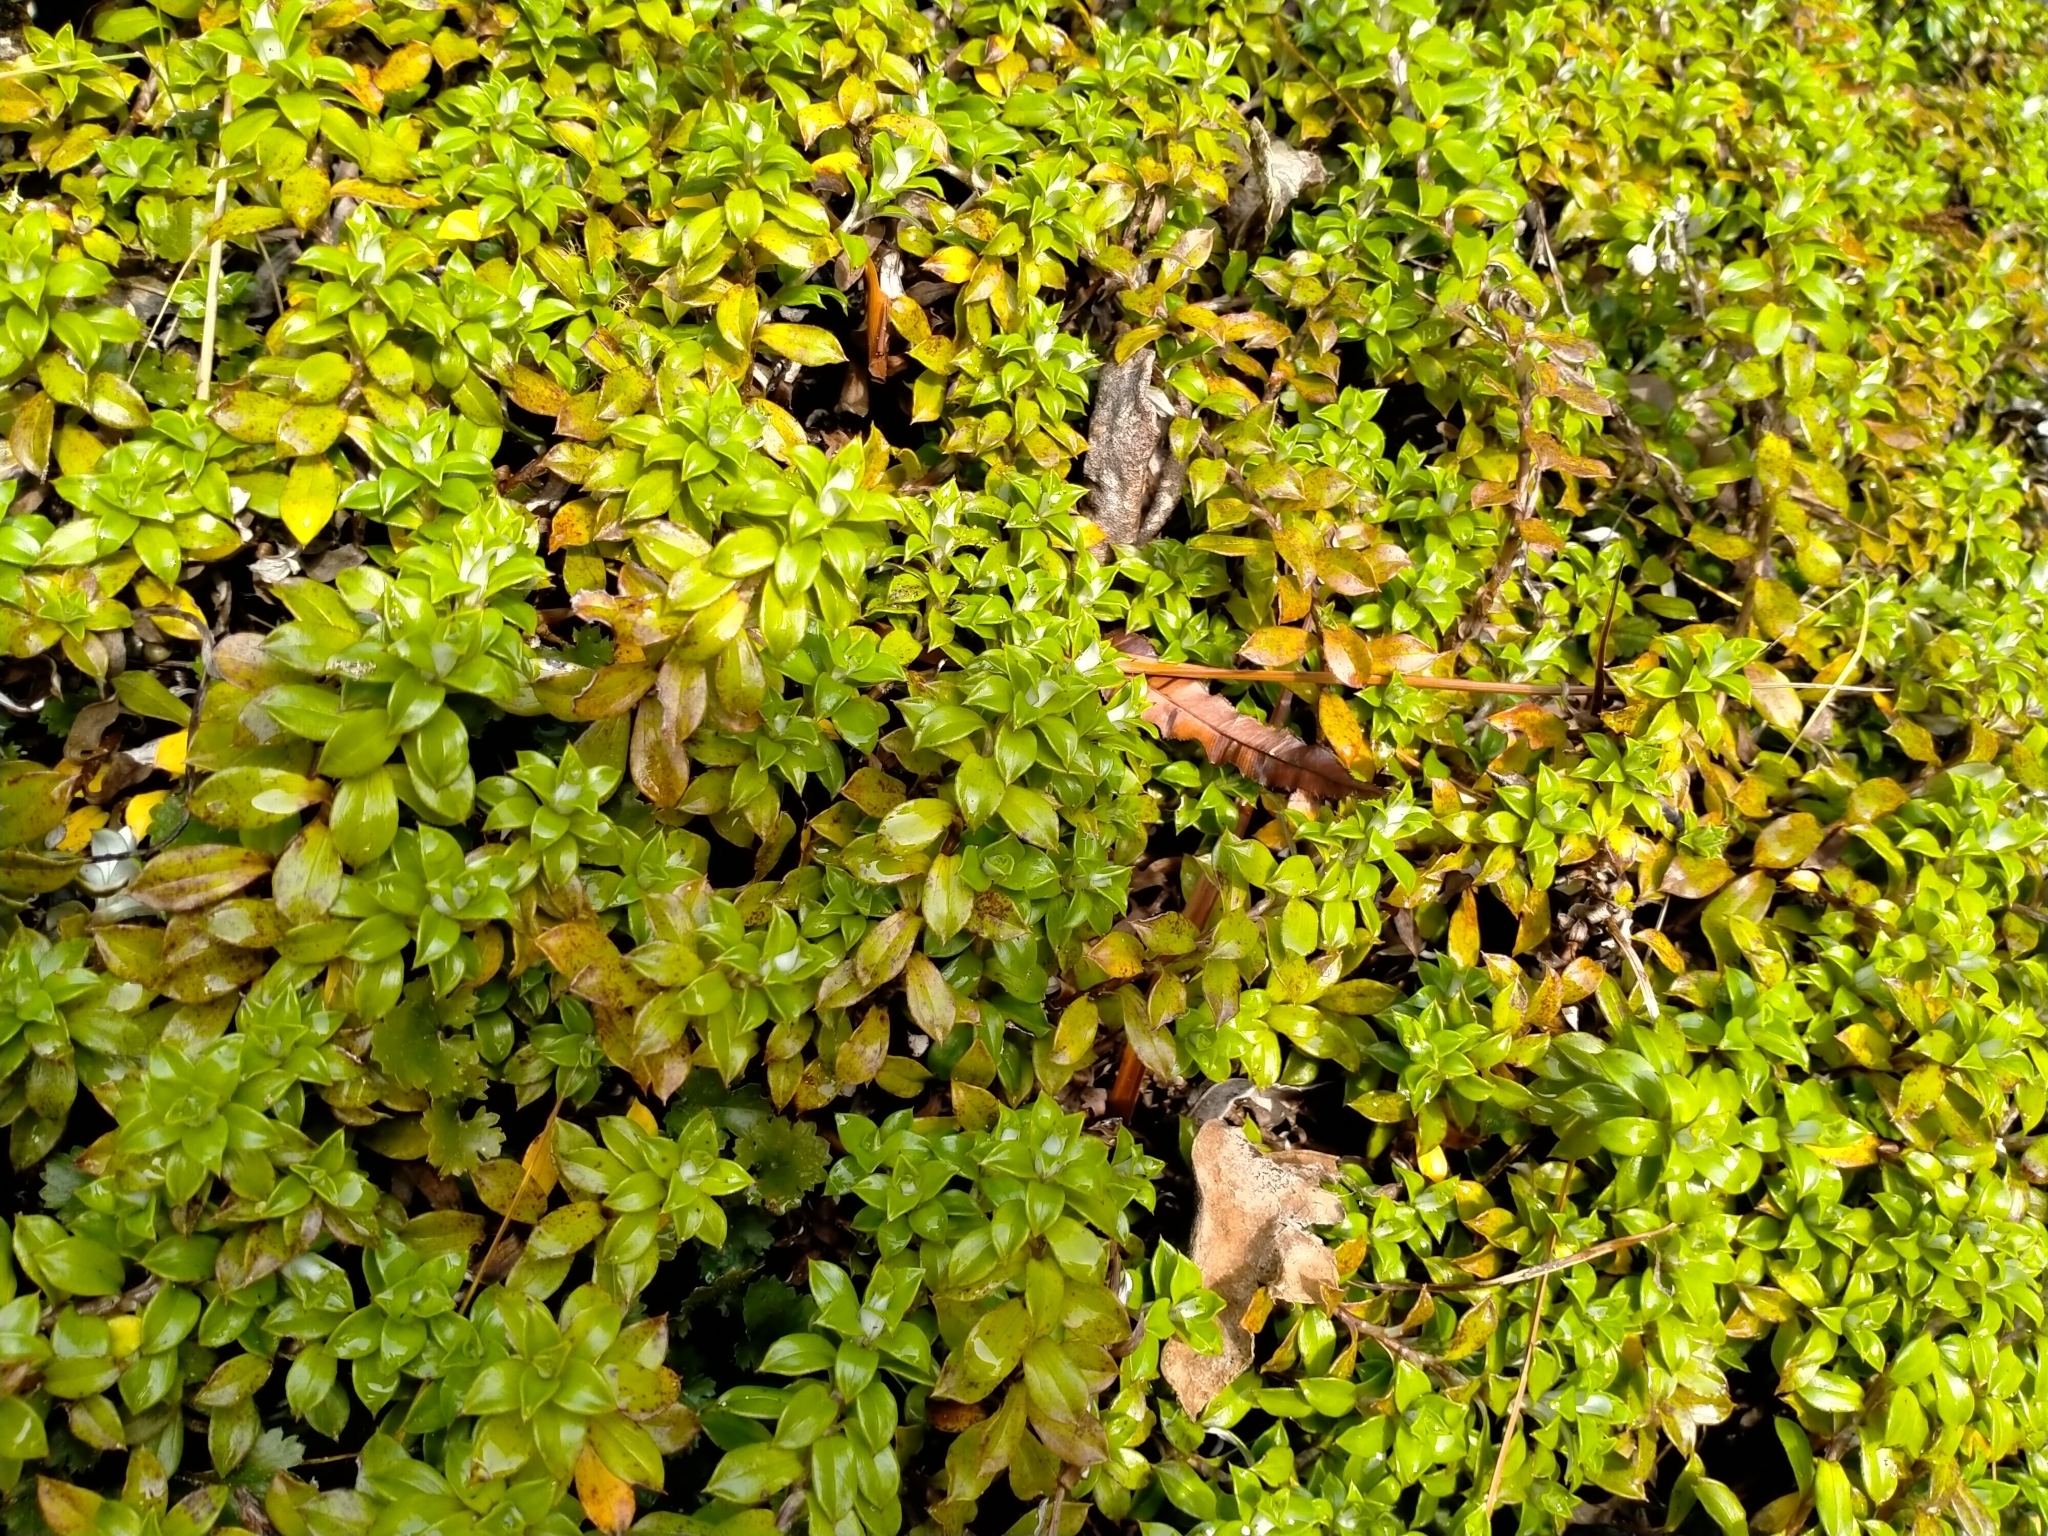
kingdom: Plantae
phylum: Tracheophyta
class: Magnoliopsida
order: Asterales
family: Asteraceae
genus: Anaphalioides
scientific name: Anaphalioides hookeri
